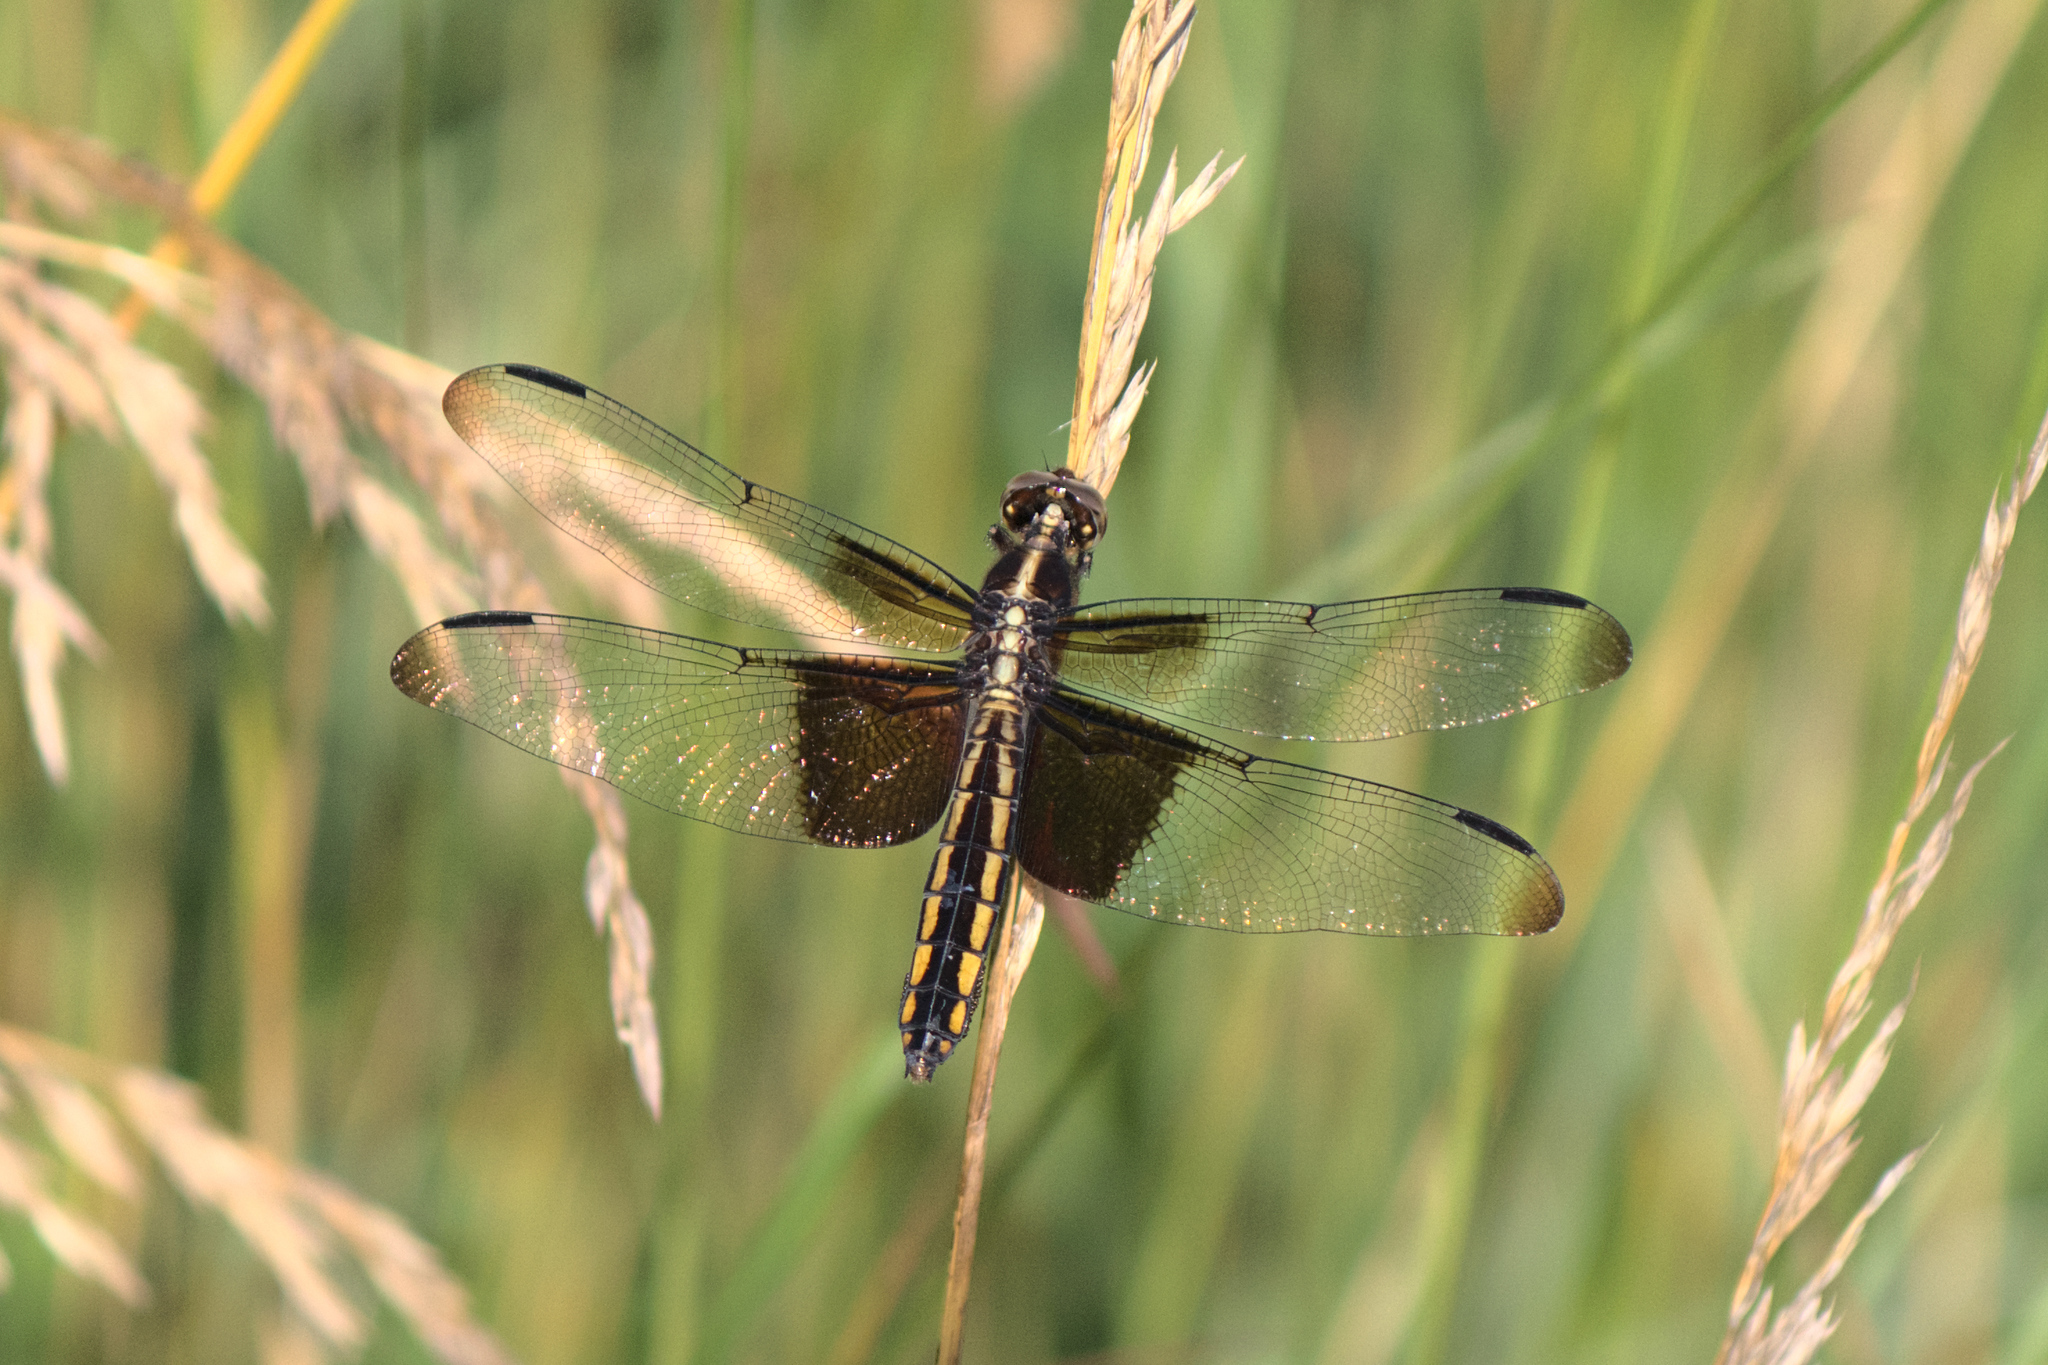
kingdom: Animalia
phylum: Arthropoda
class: Insecta
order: Odonata
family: Libellulidae
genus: Libellula
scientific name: Libellula luctuosa
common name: Widow skimmer
